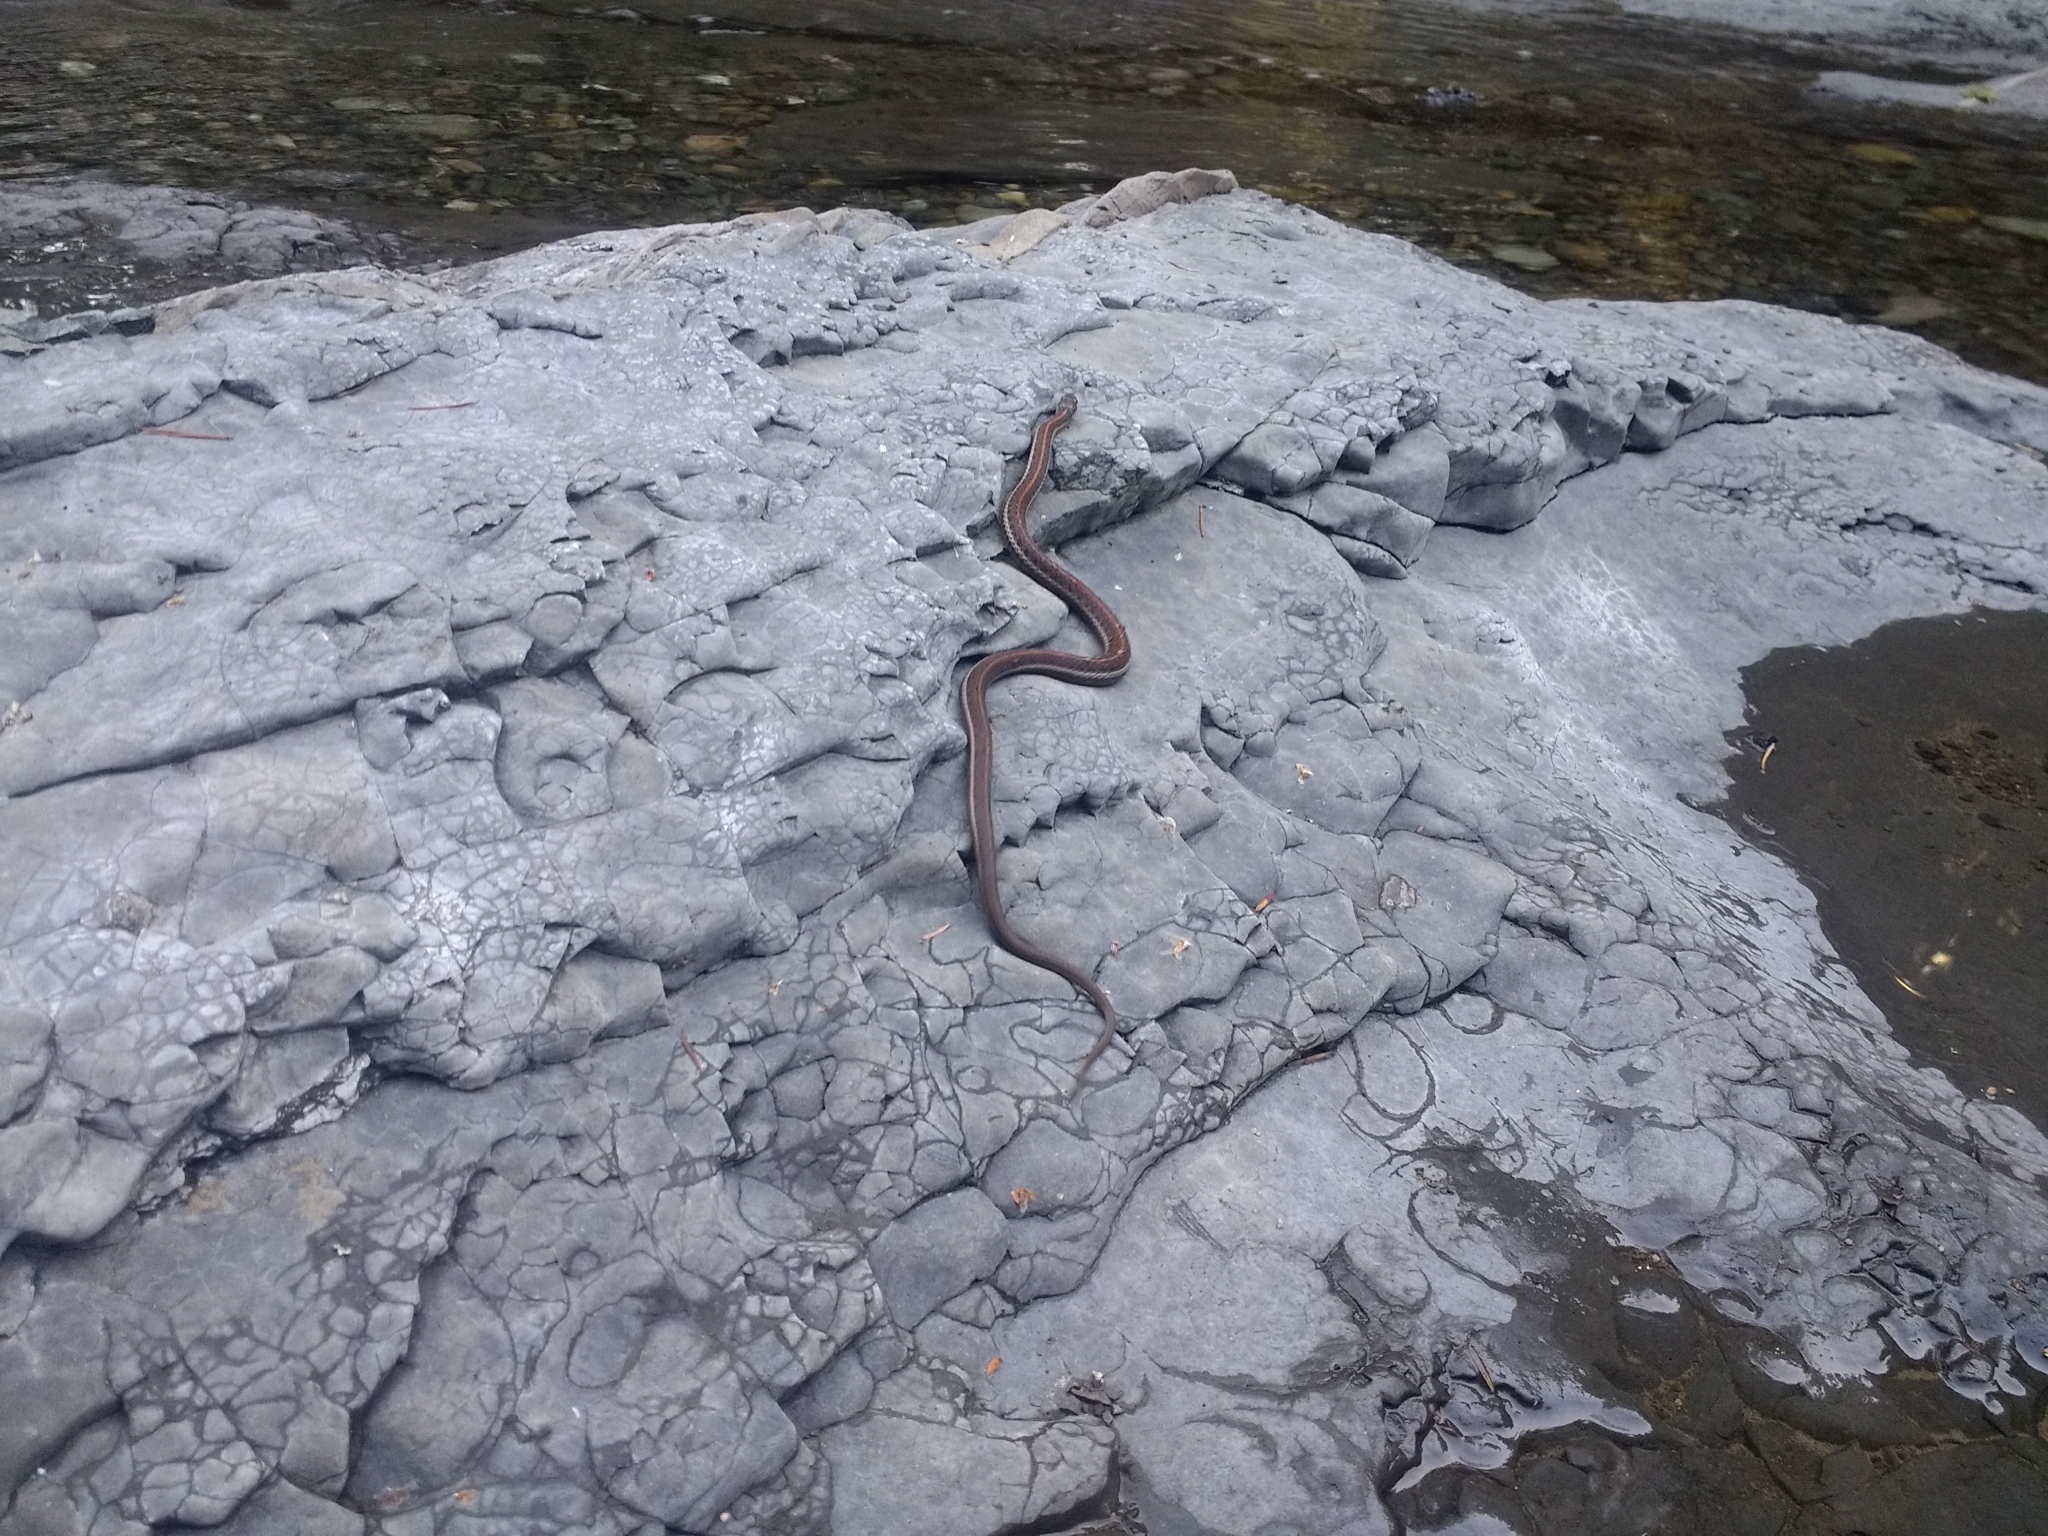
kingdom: Animalia
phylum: Chordata
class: Squamata
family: Colubridae
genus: Thamnophis
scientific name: Thamnophis ordinoides
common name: Northwestern garter snake
